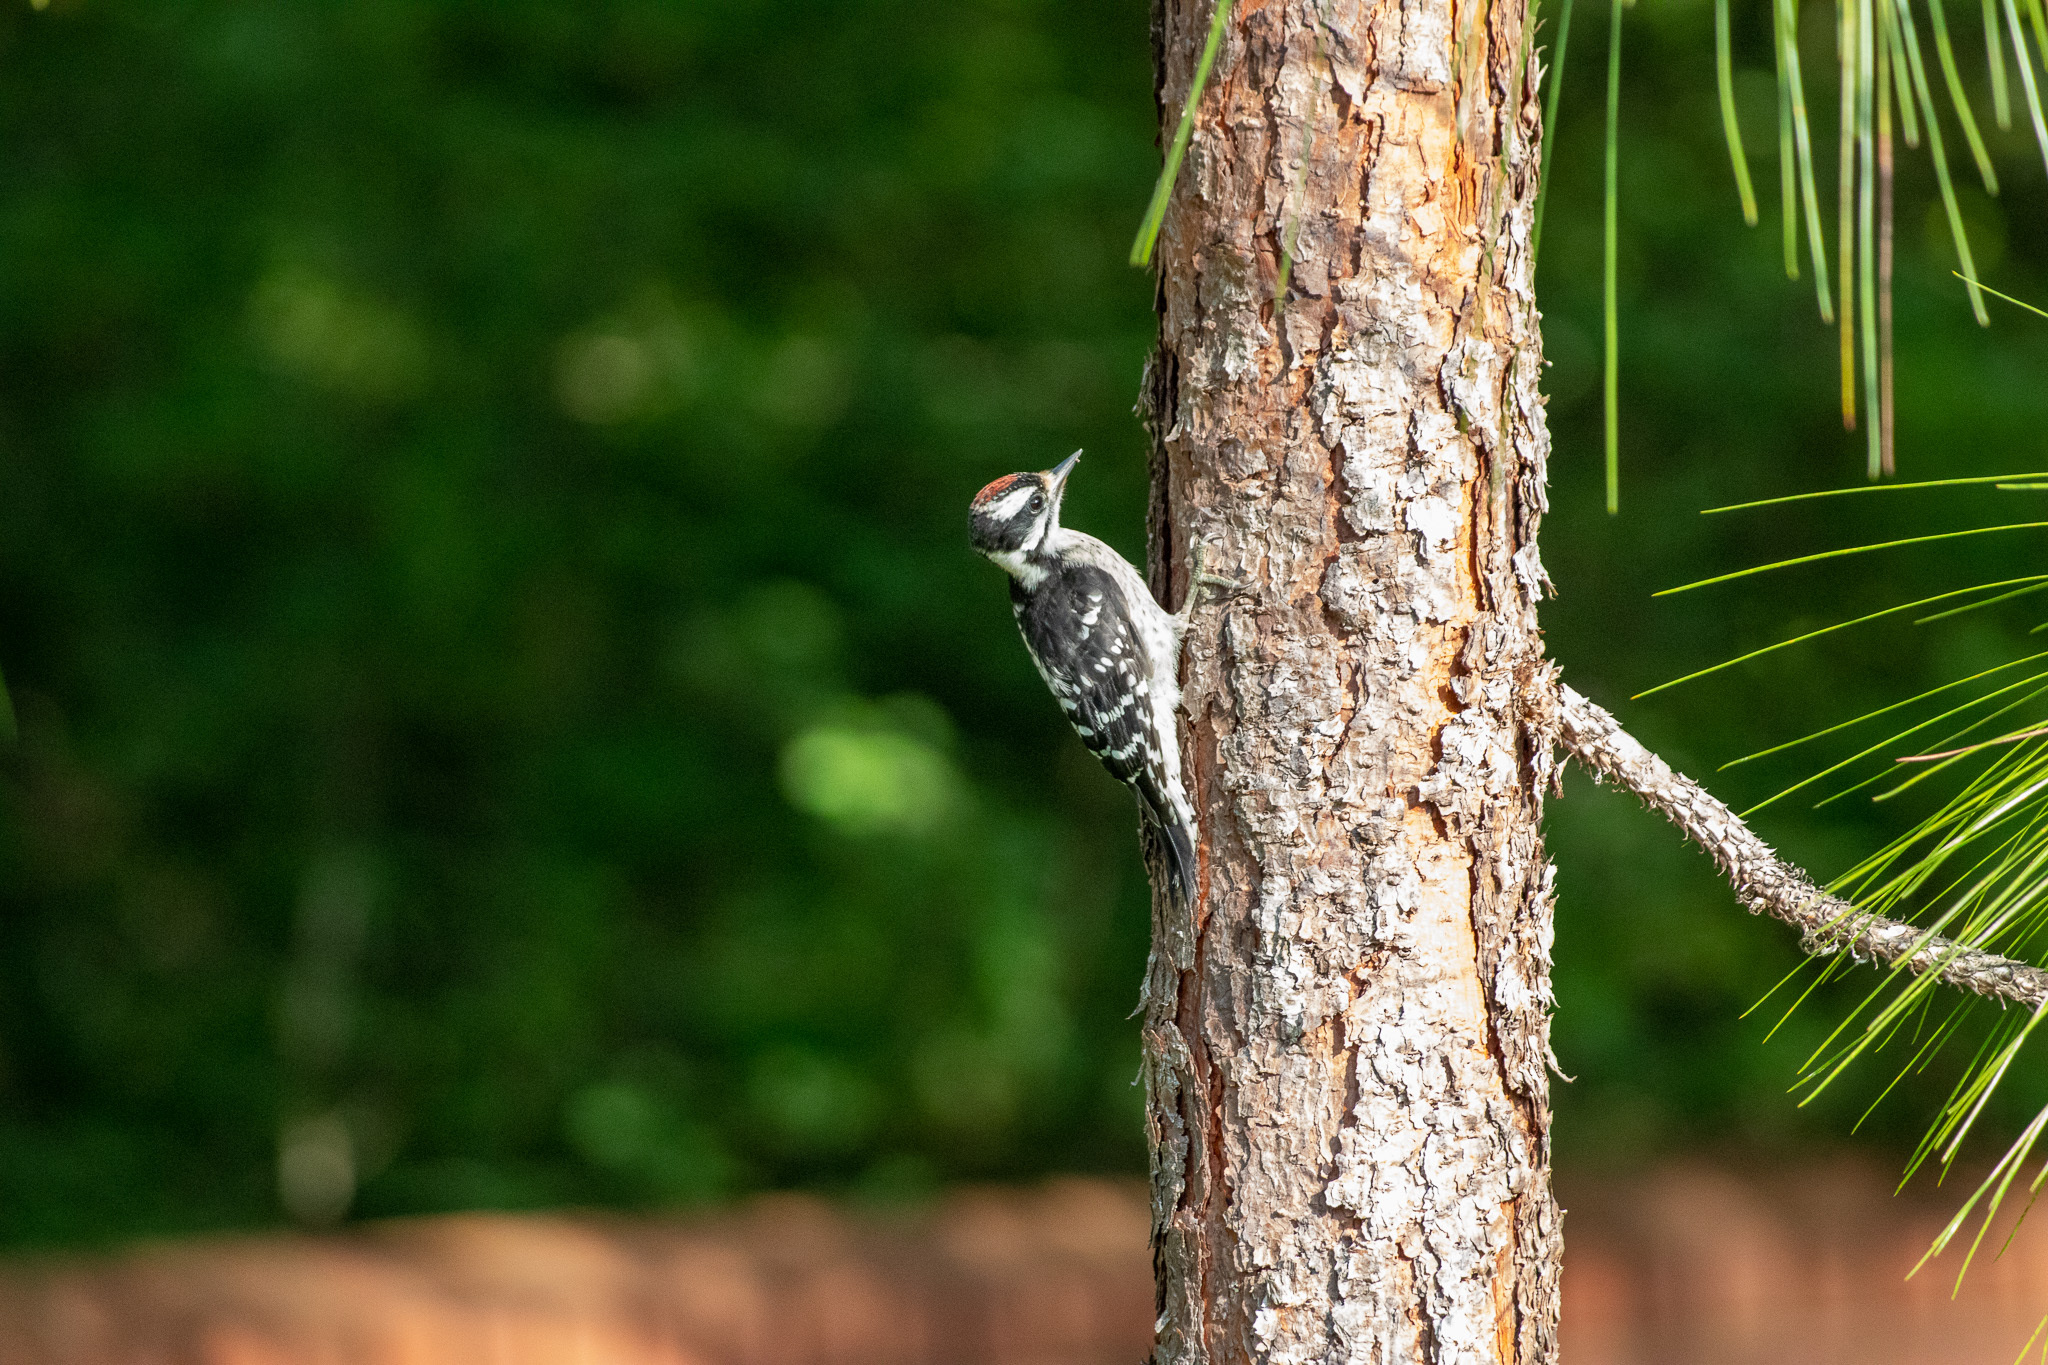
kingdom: Animalia
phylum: Chordata
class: Aves
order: Piciformes
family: Picidae
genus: Dryobates
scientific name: Dryobates pubescens
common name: Downy woodpecker
